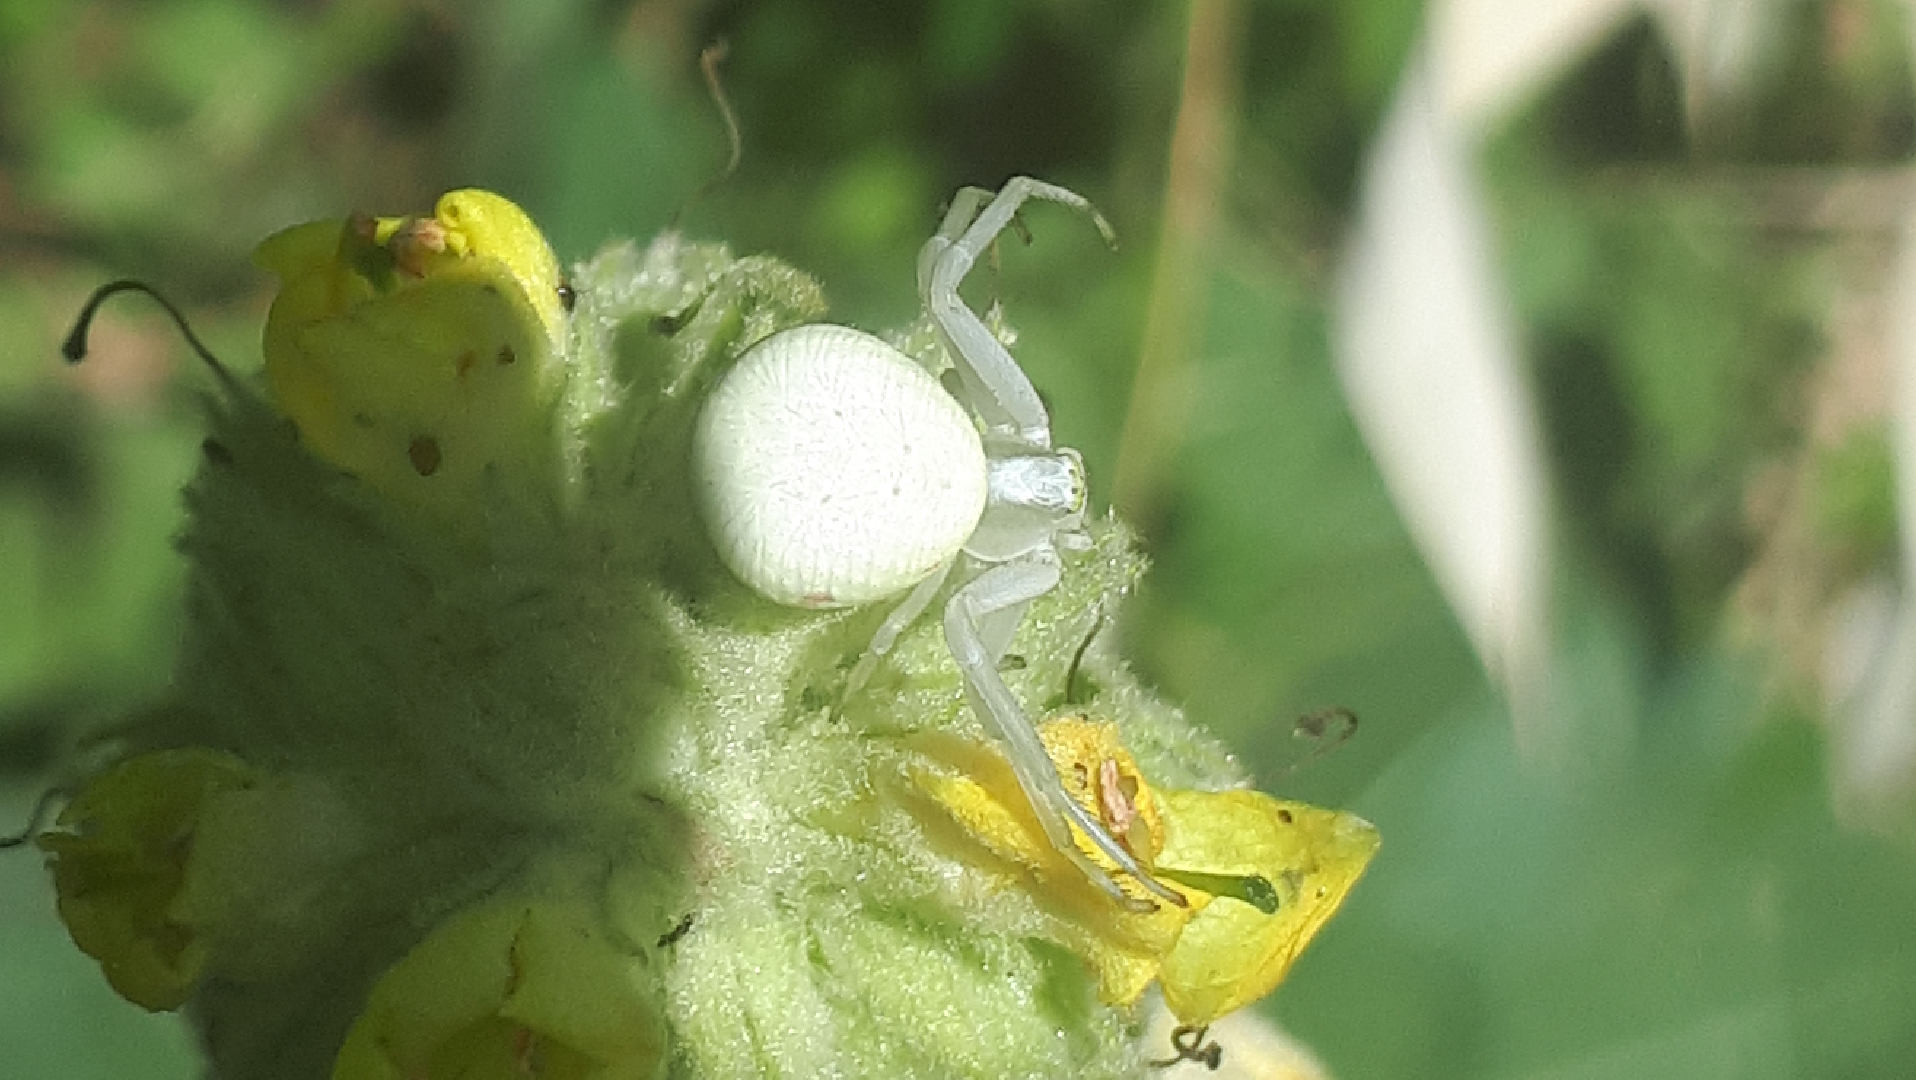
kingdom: Animalia
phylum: Arthropoda
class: Arachnida
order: Araneae
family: Thomisidae
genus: Misumena
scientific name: Misumena vatia
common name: Goldenrod crab spider
